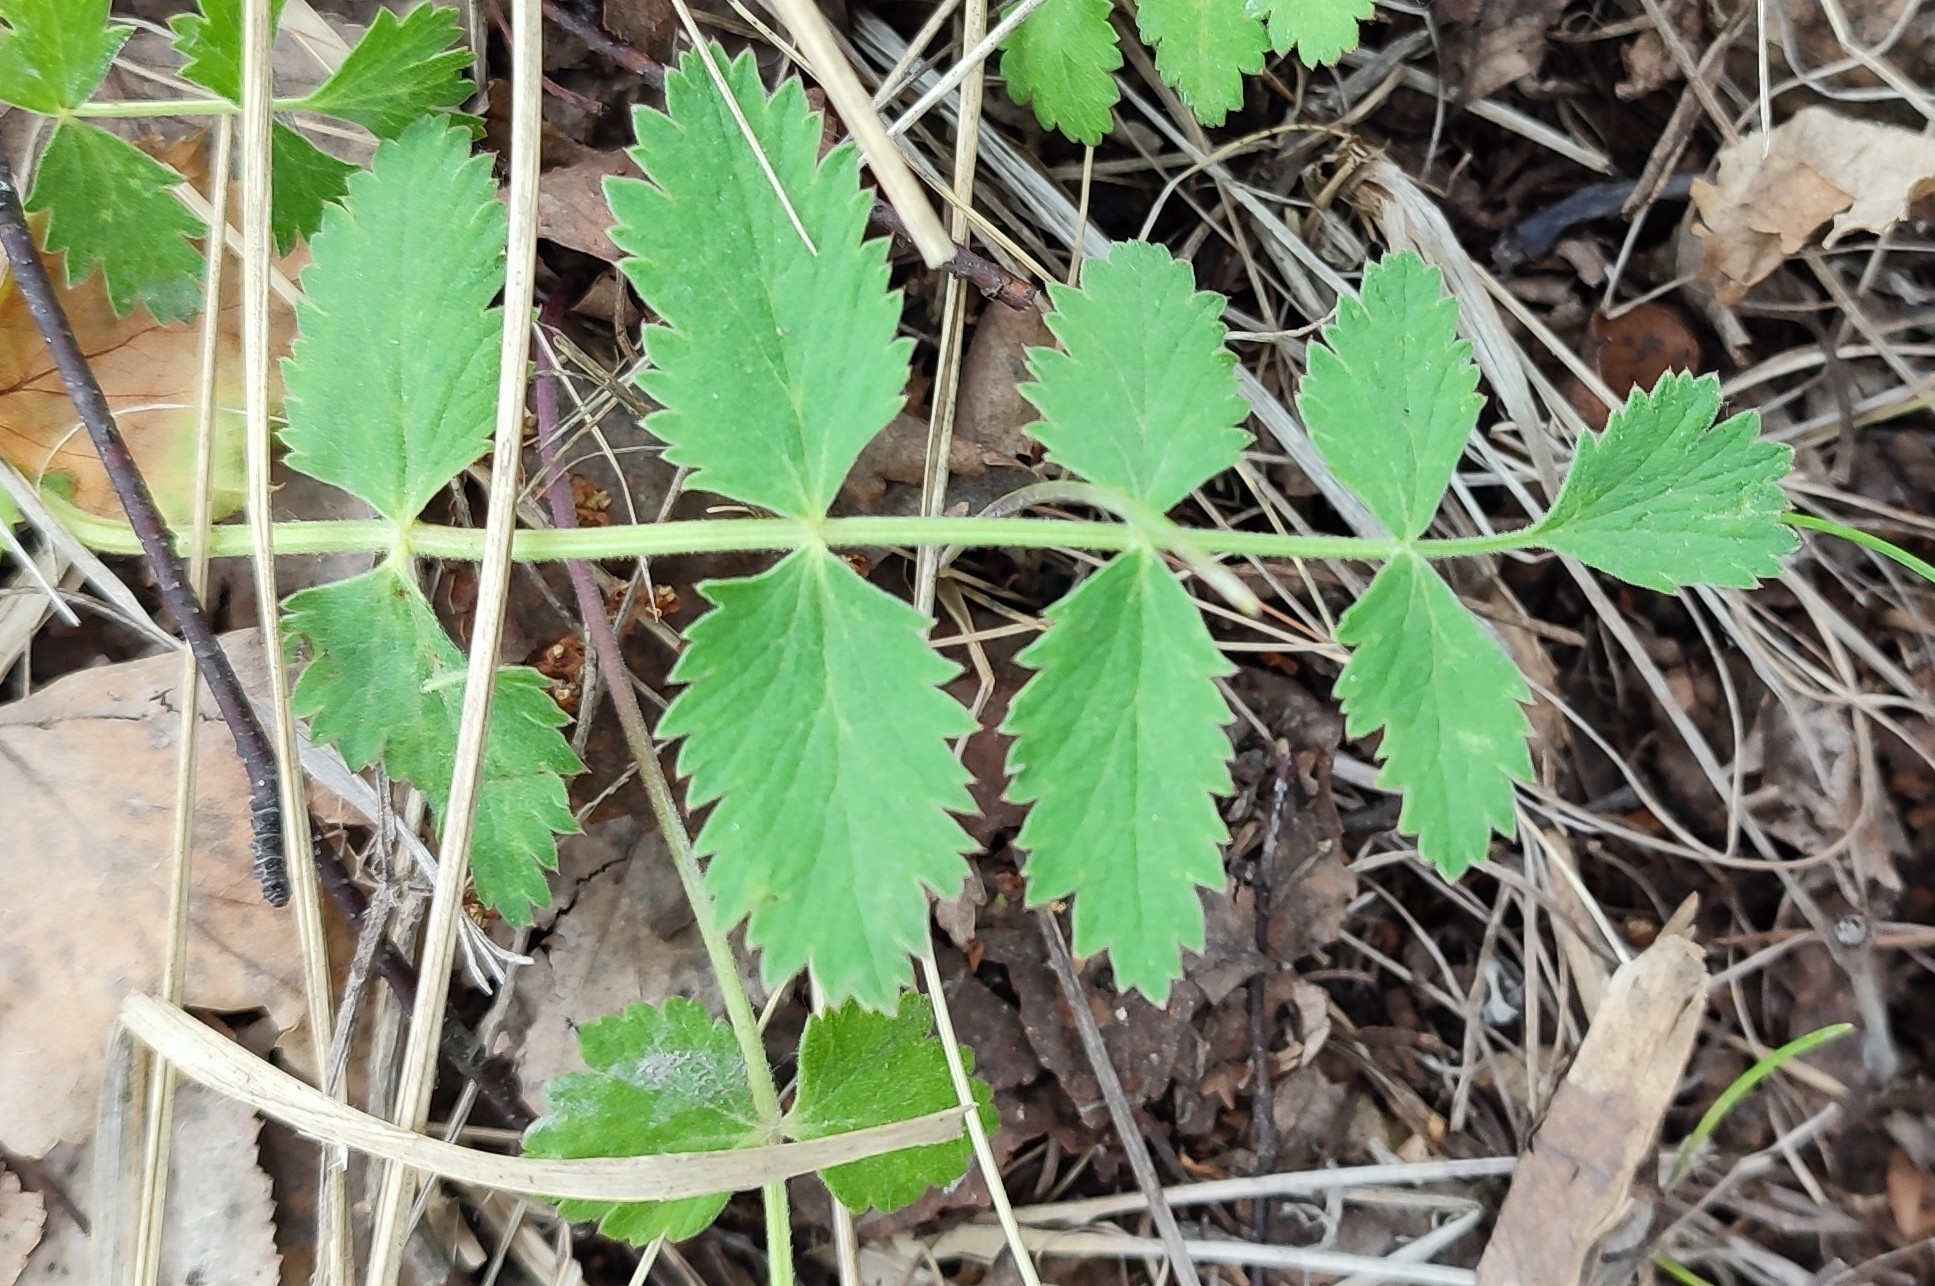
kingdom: Plantae
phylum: Tracheophyta
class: Magnoliopsida
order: Apiales
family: Apiaceae
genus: Pimpinella
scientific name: Pimpinella saxifraga
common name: Burnet-saxifrage
